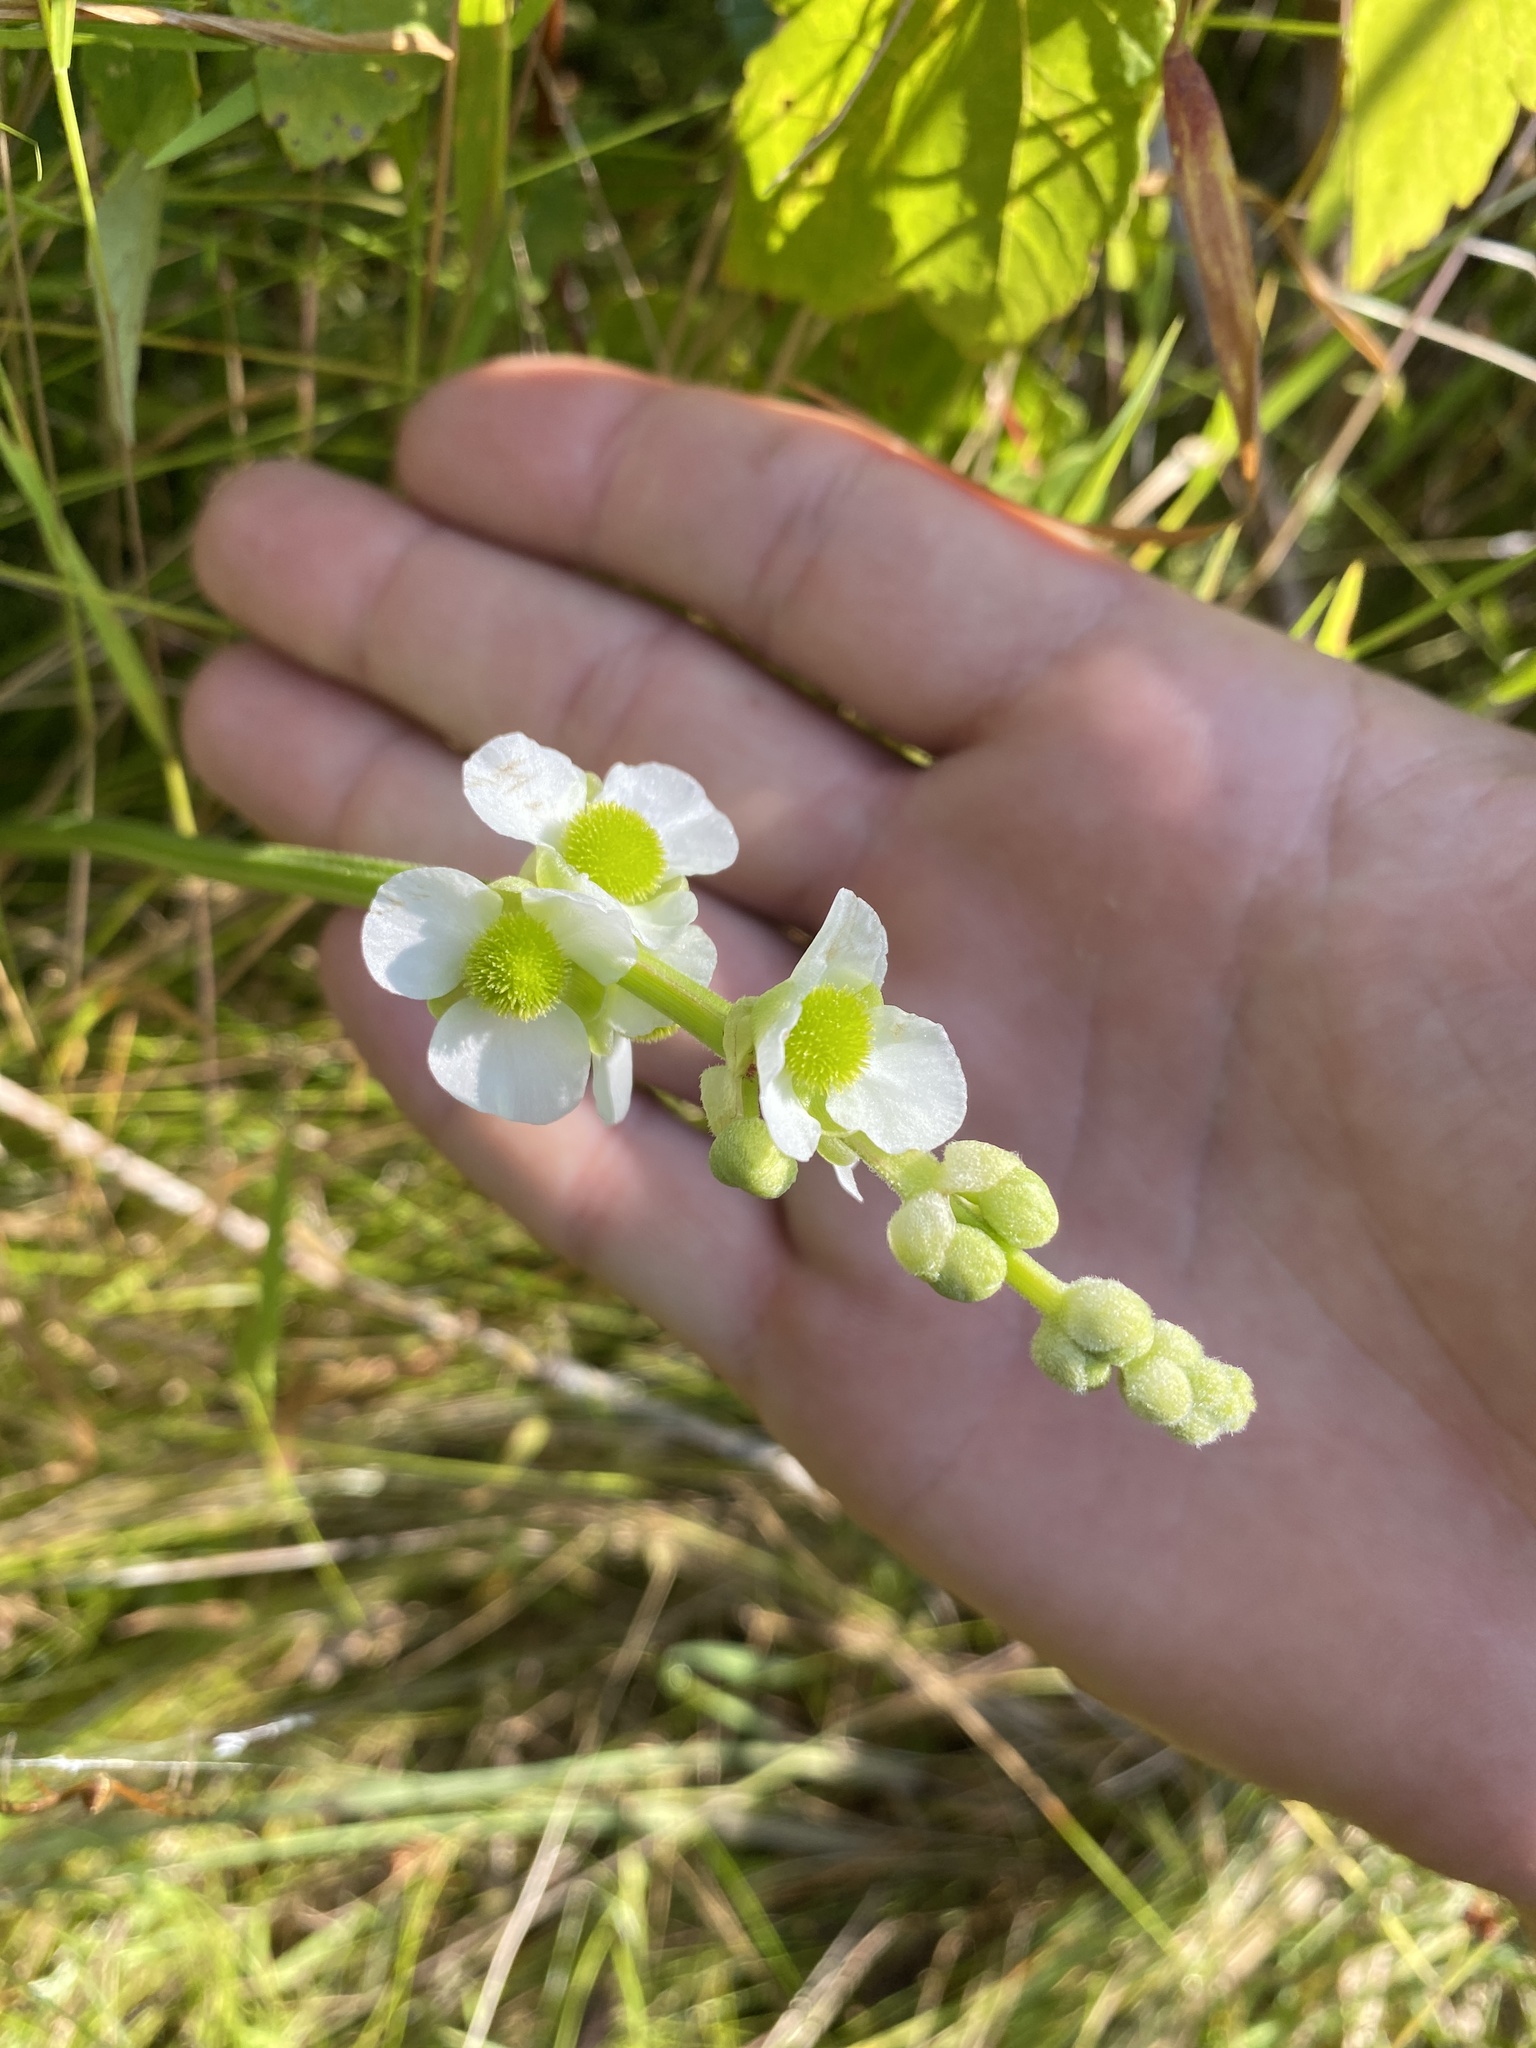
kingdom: Plantae
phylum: Tracheophyta
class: Liliopsida
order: Alismatales
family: Alismataceae
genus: Sagittaria
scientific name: Sagittaria latifolia
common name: Duck-potato
